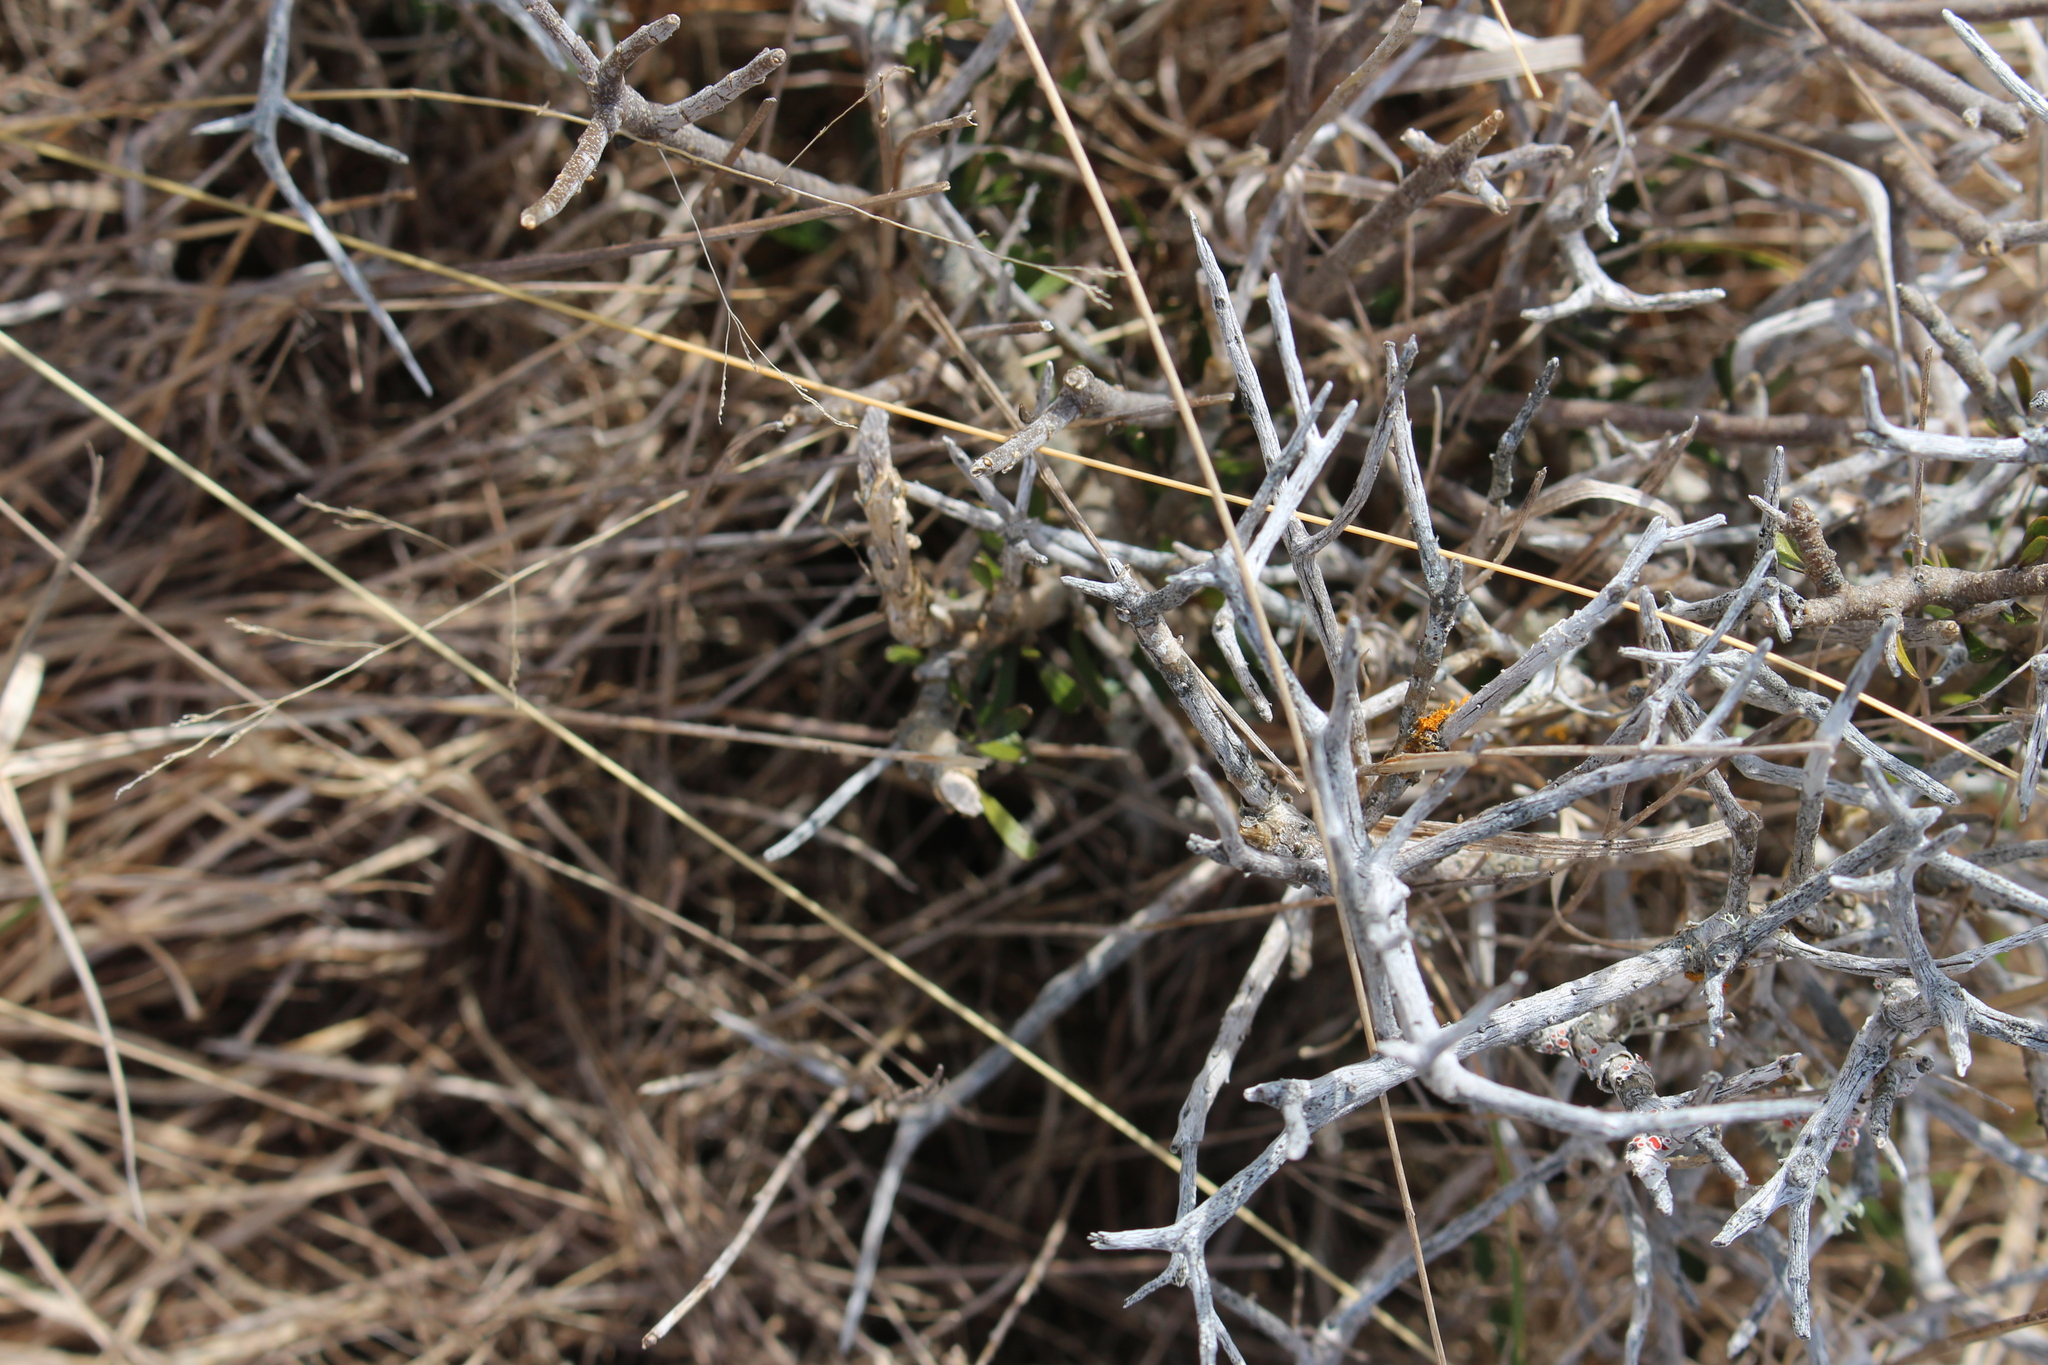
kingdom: Plantae
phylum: Tracheophyta
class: Magnoliopsida
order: Malpighiales
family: Violaceae
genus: Melicytus
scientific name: Melicytus alpinus
